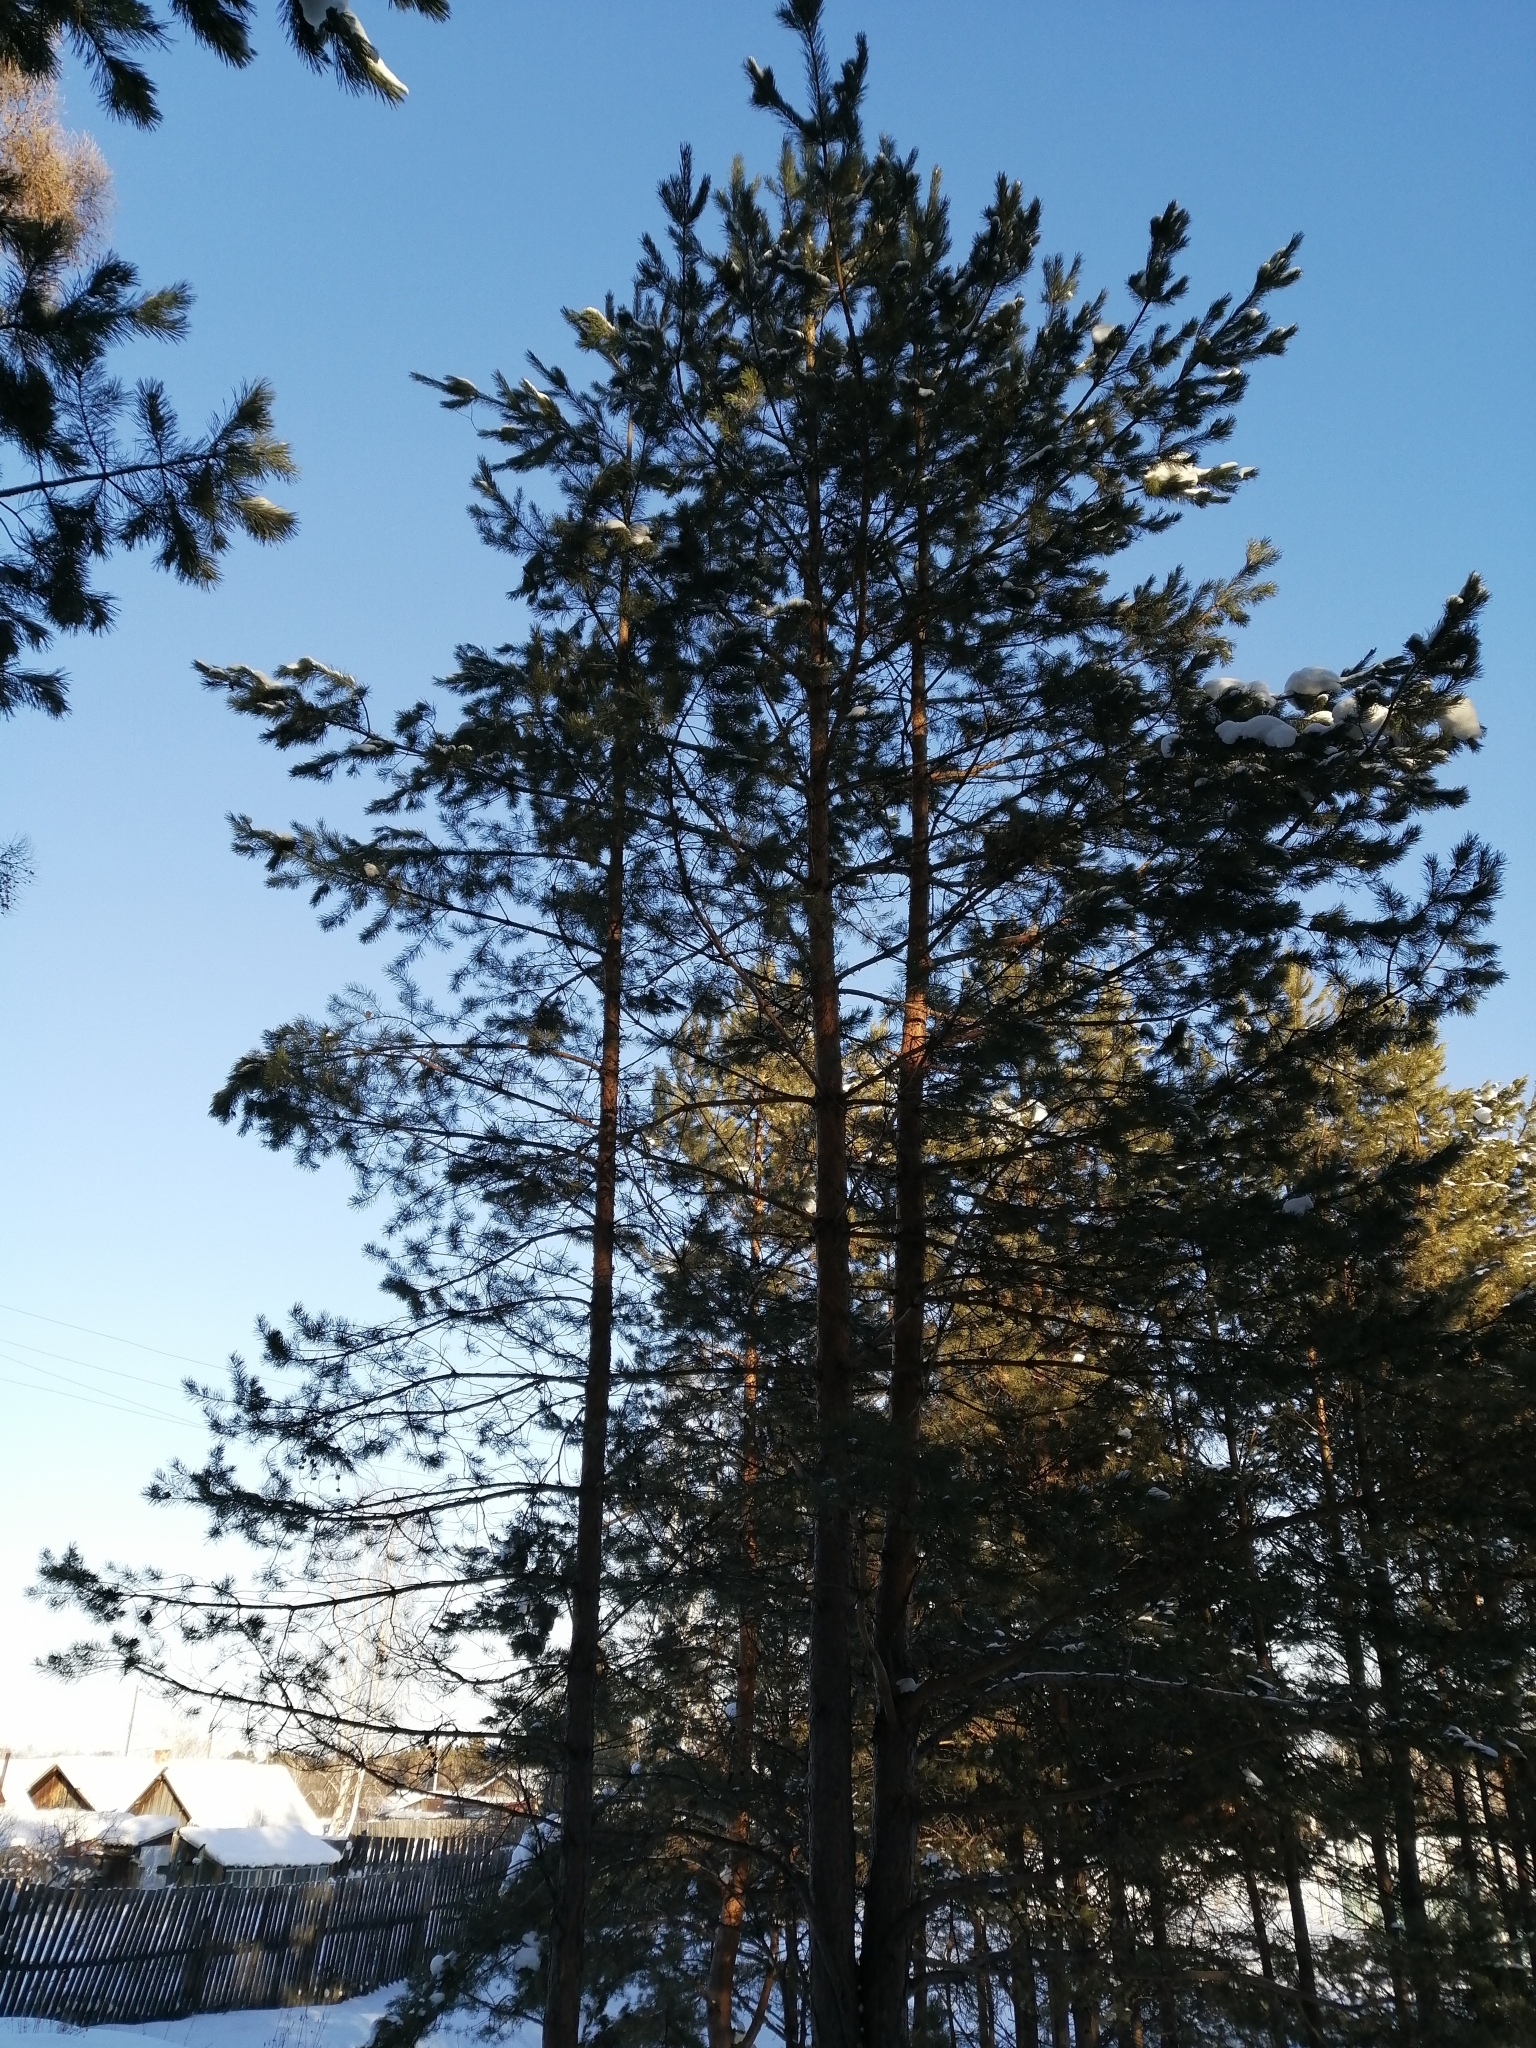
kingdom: Plantae
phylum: Tracheophyta
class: Pinopsida
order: Pinales
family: Pinaceae
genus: Pinus
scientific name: Pinus sylvestris
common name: Scots pine
